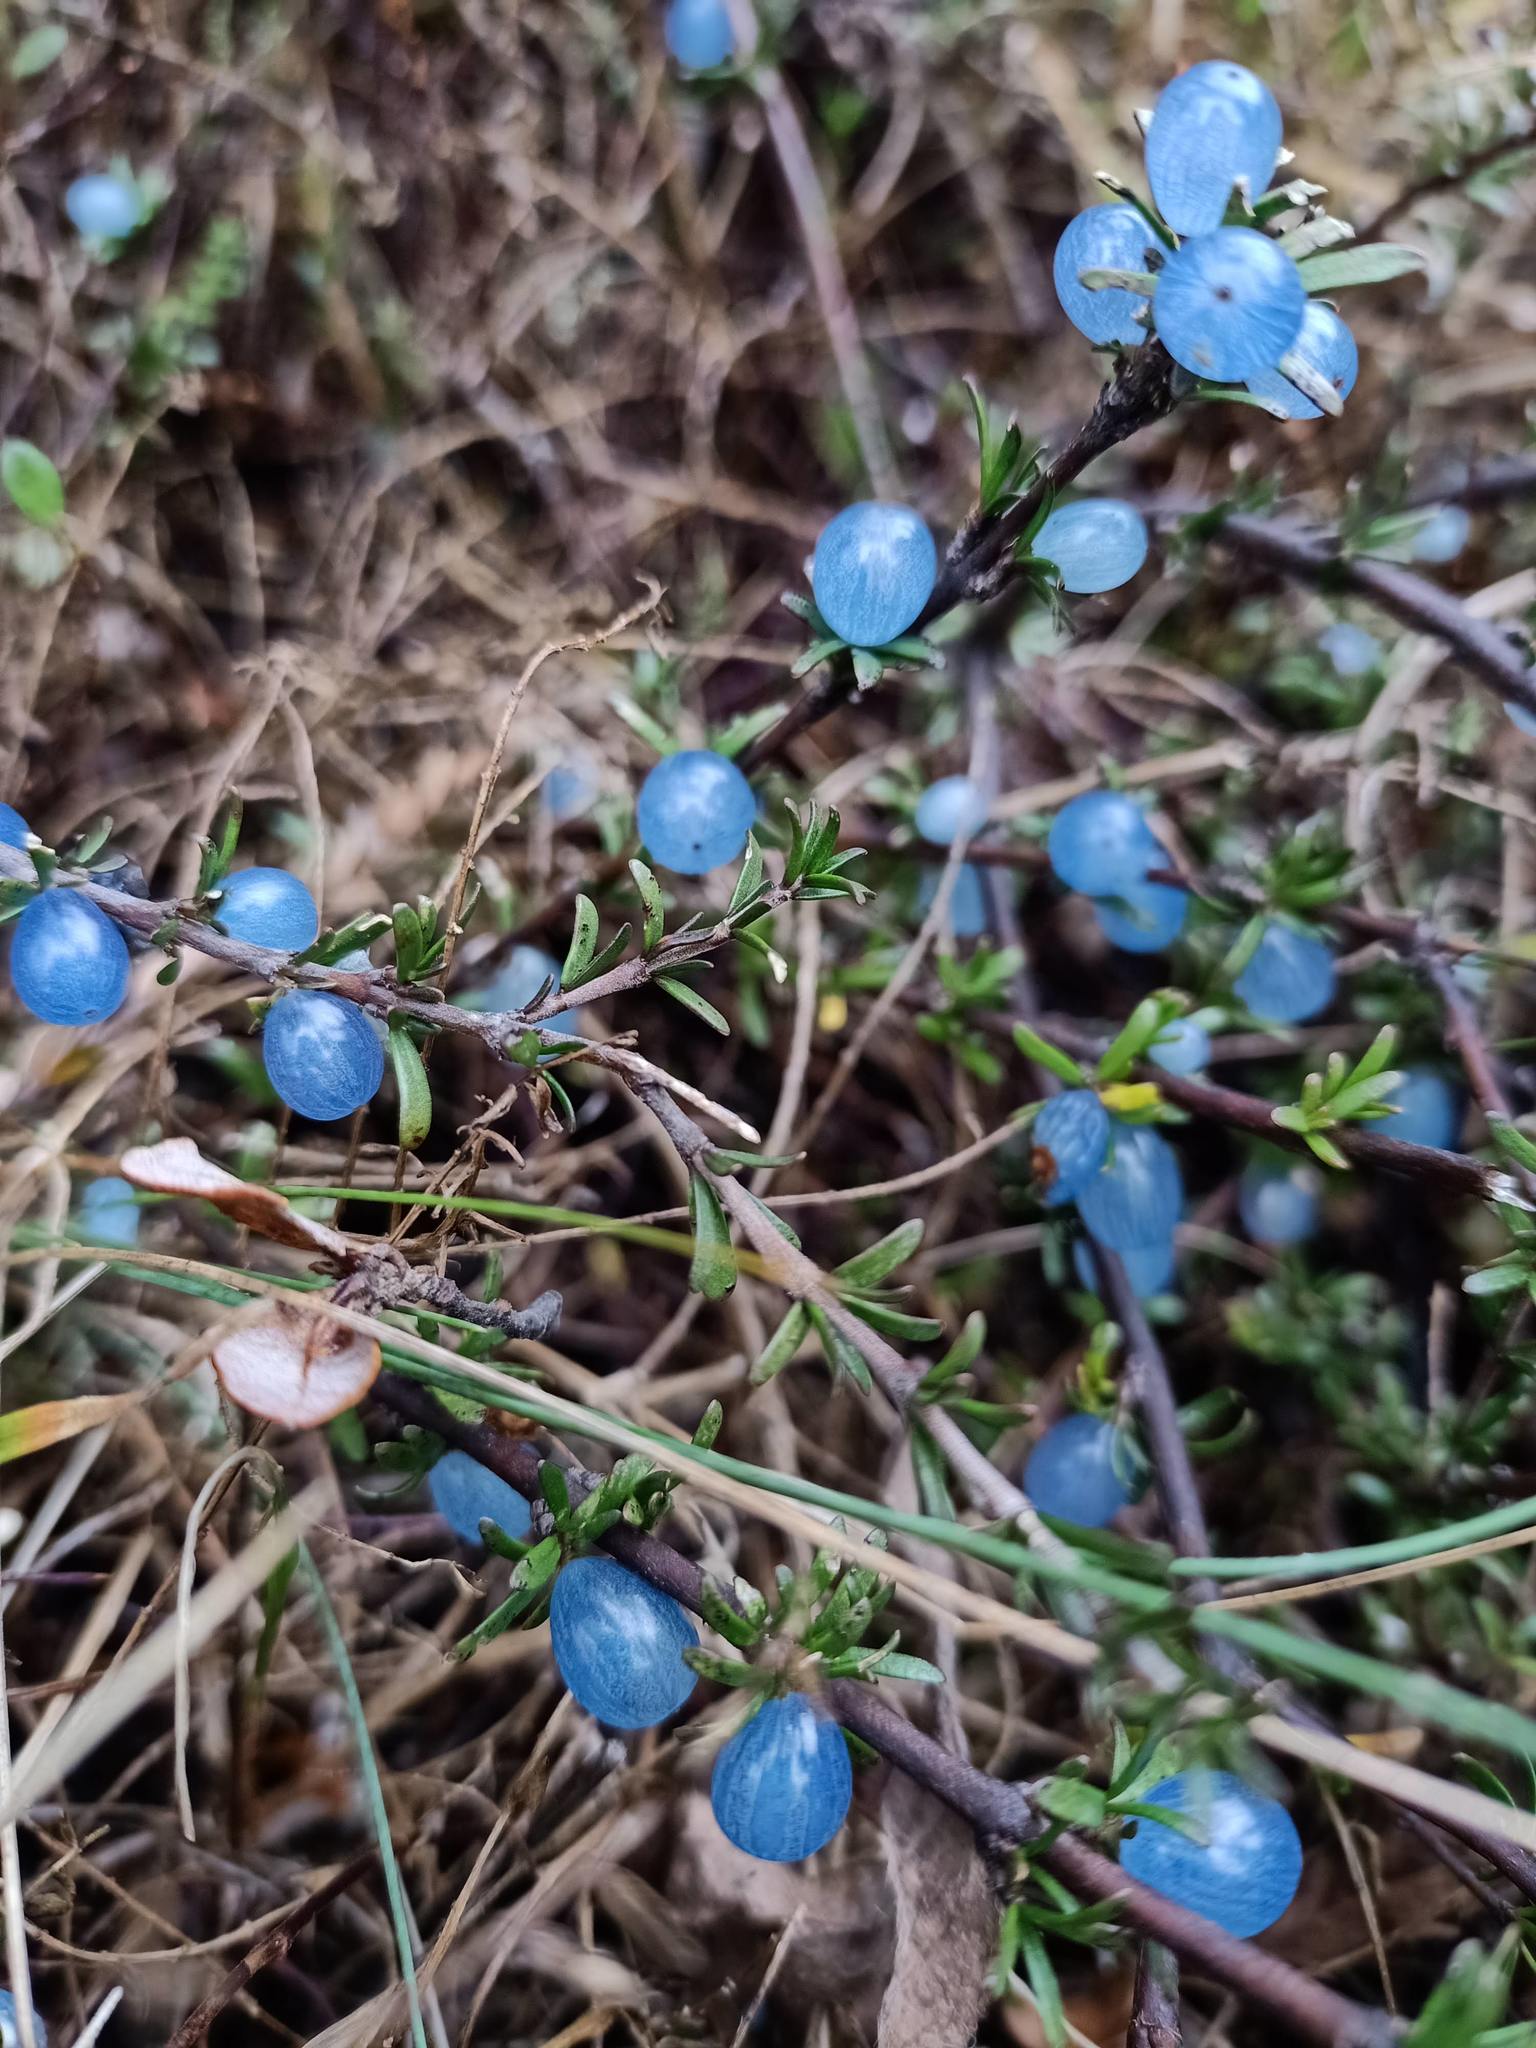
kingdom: Plantae
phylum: Tracheophyta
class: Magnoliopsida
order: Gentianales
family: Rubiaceae
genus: Coprosma
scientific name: Coprosma acerosa
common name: Sand coprosma
